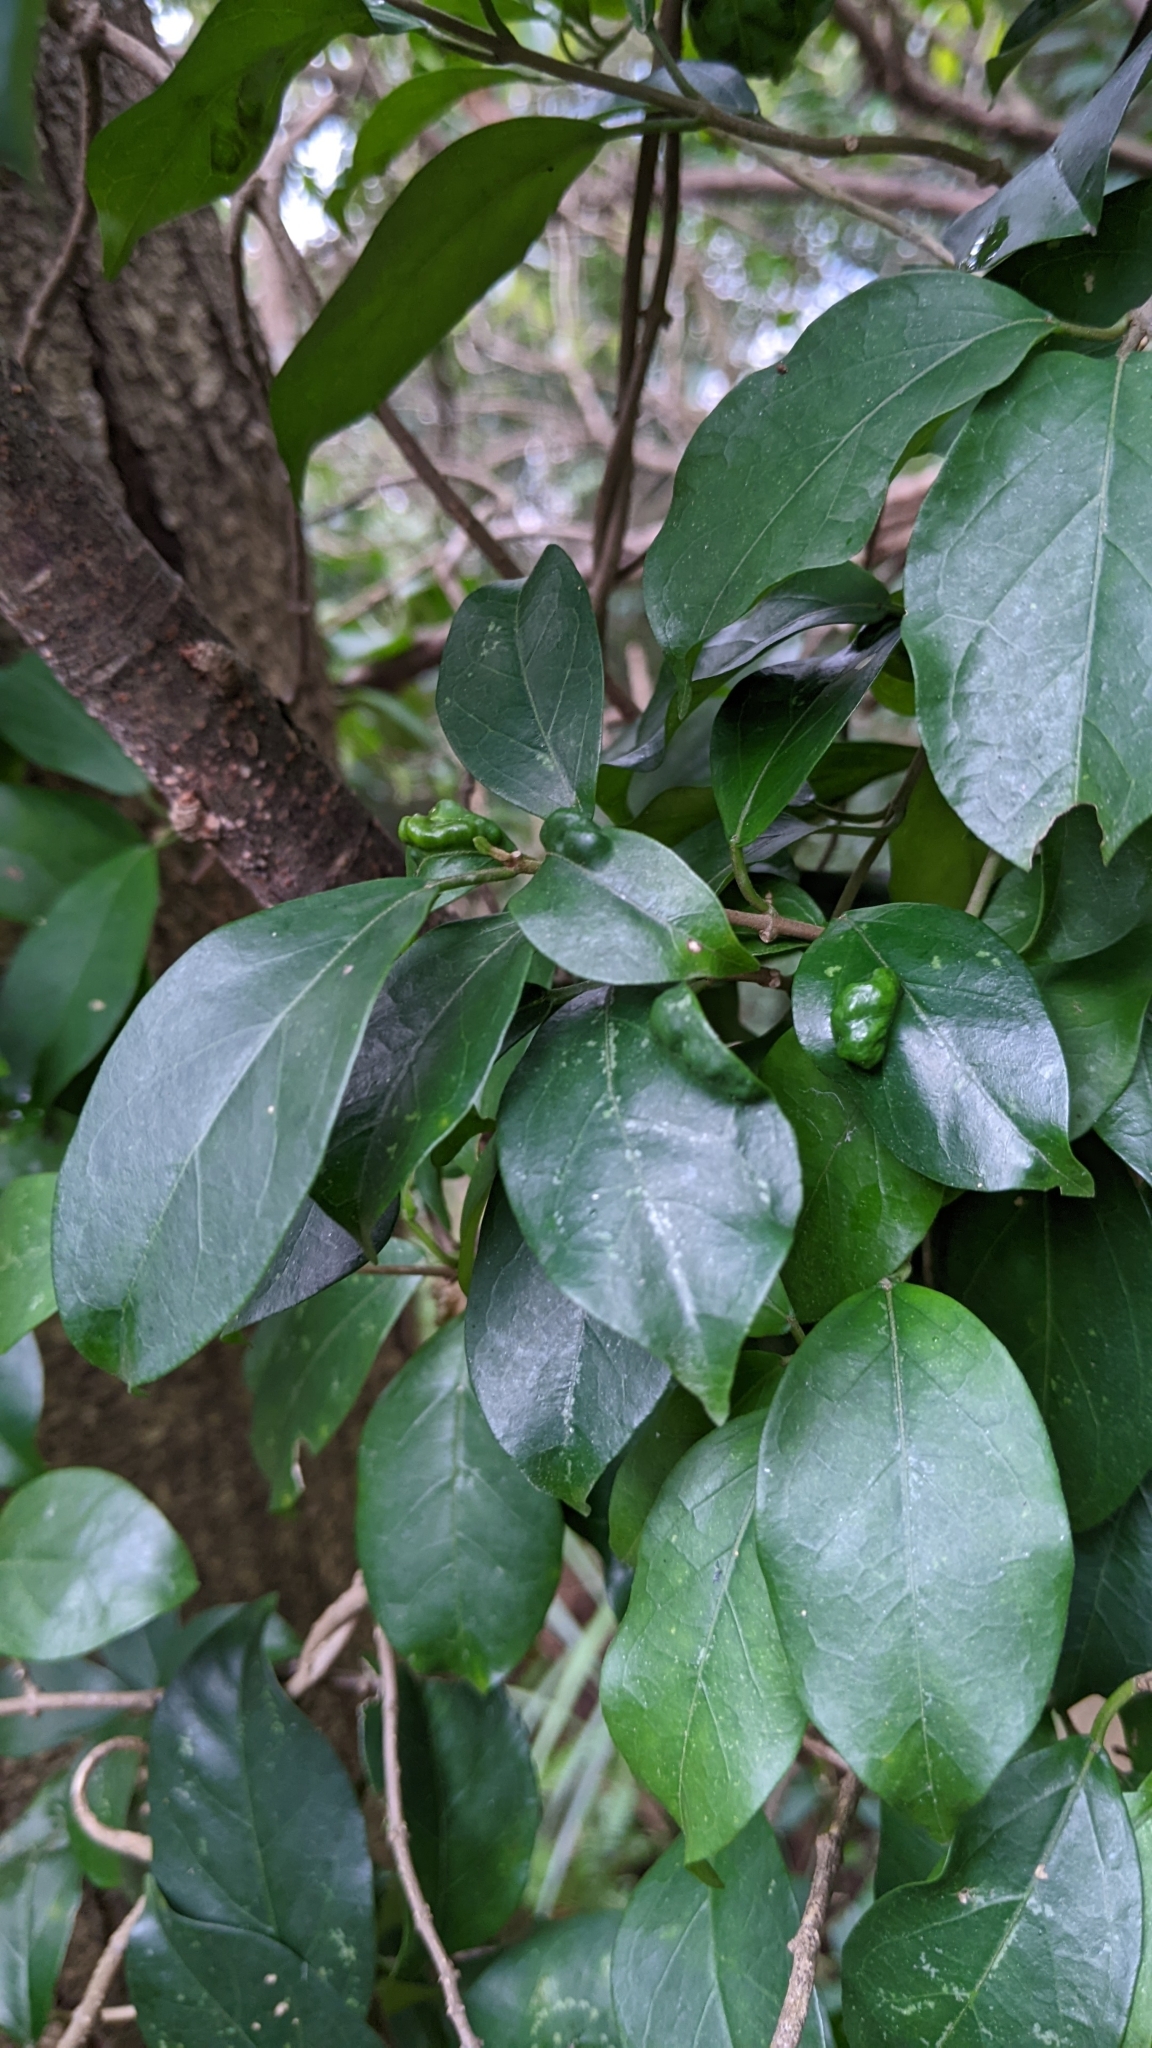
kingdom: Plantae
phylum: Tracheophyta
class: Magnoliopsida
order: Gentianales
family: Apocynaceae
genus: Gymnema
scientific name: Gymnema sylvestre
